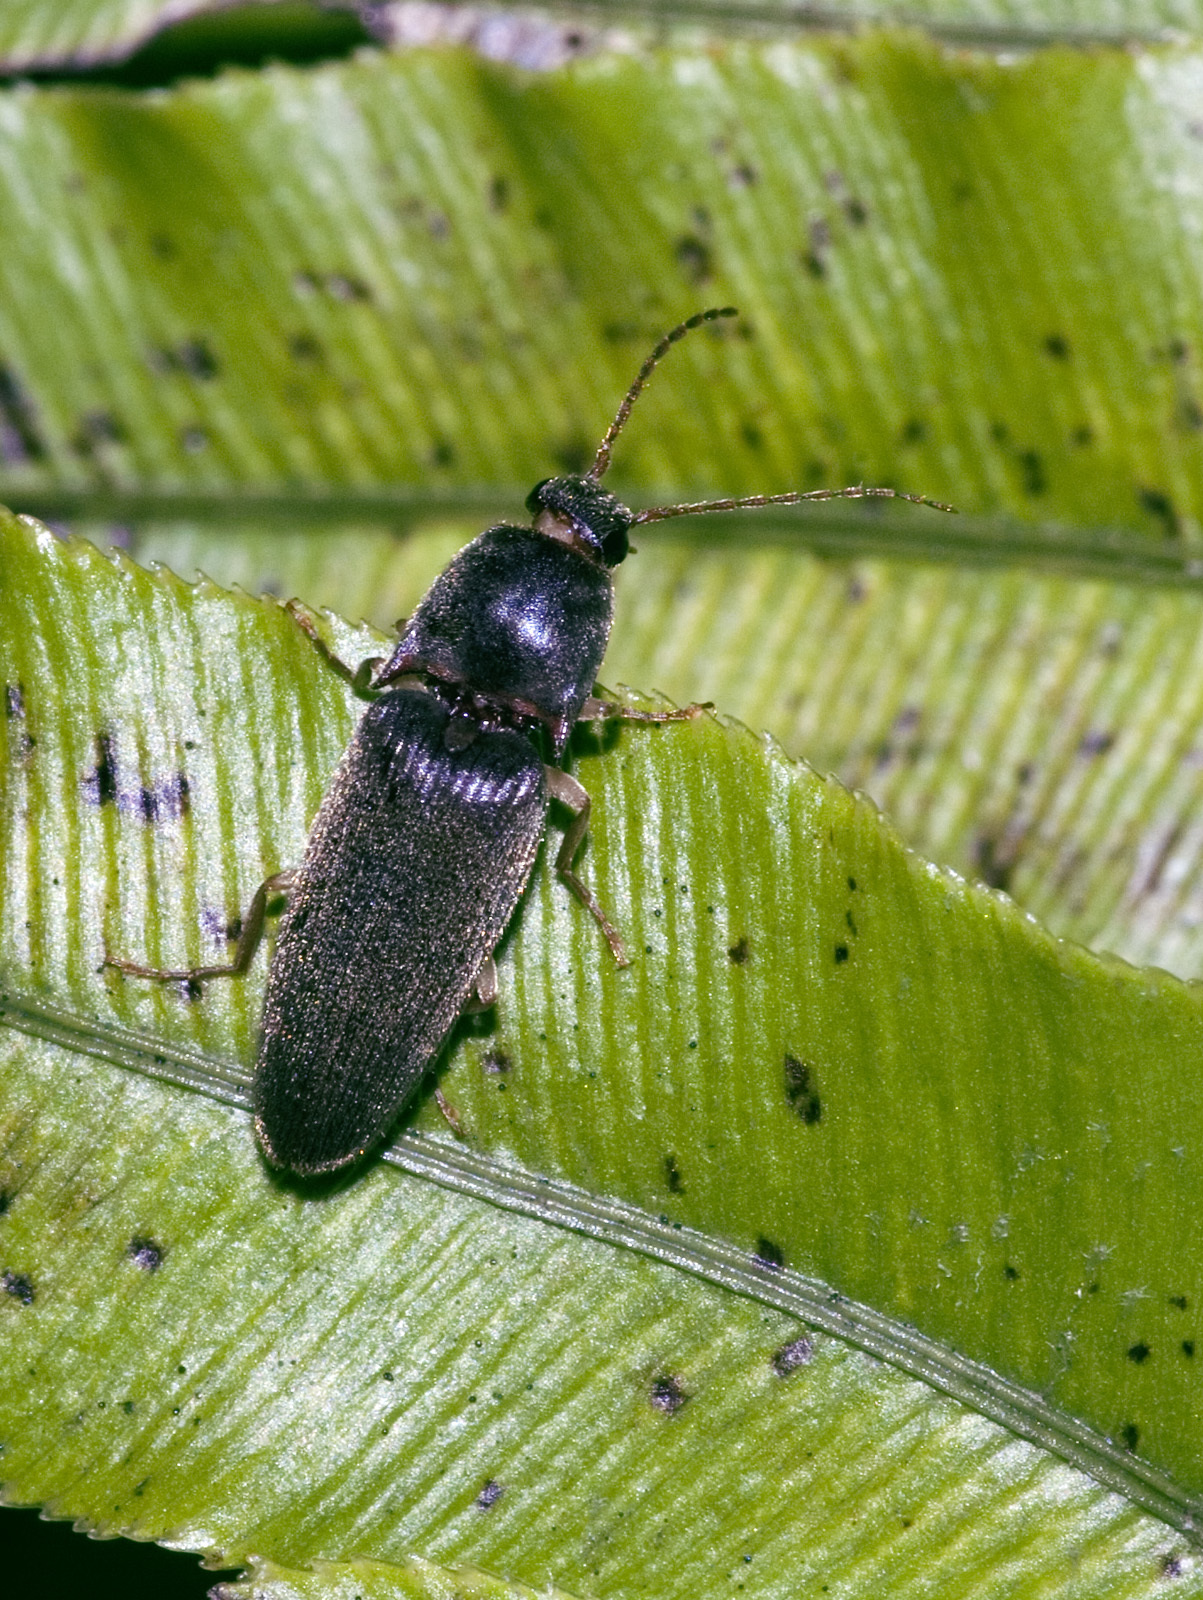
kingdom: Animalia
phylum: Arthropoda
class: Insecta
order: Coleoptera
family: Elateridae
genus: Conoderus
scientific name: Conoderus exsul
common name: Click beetle
